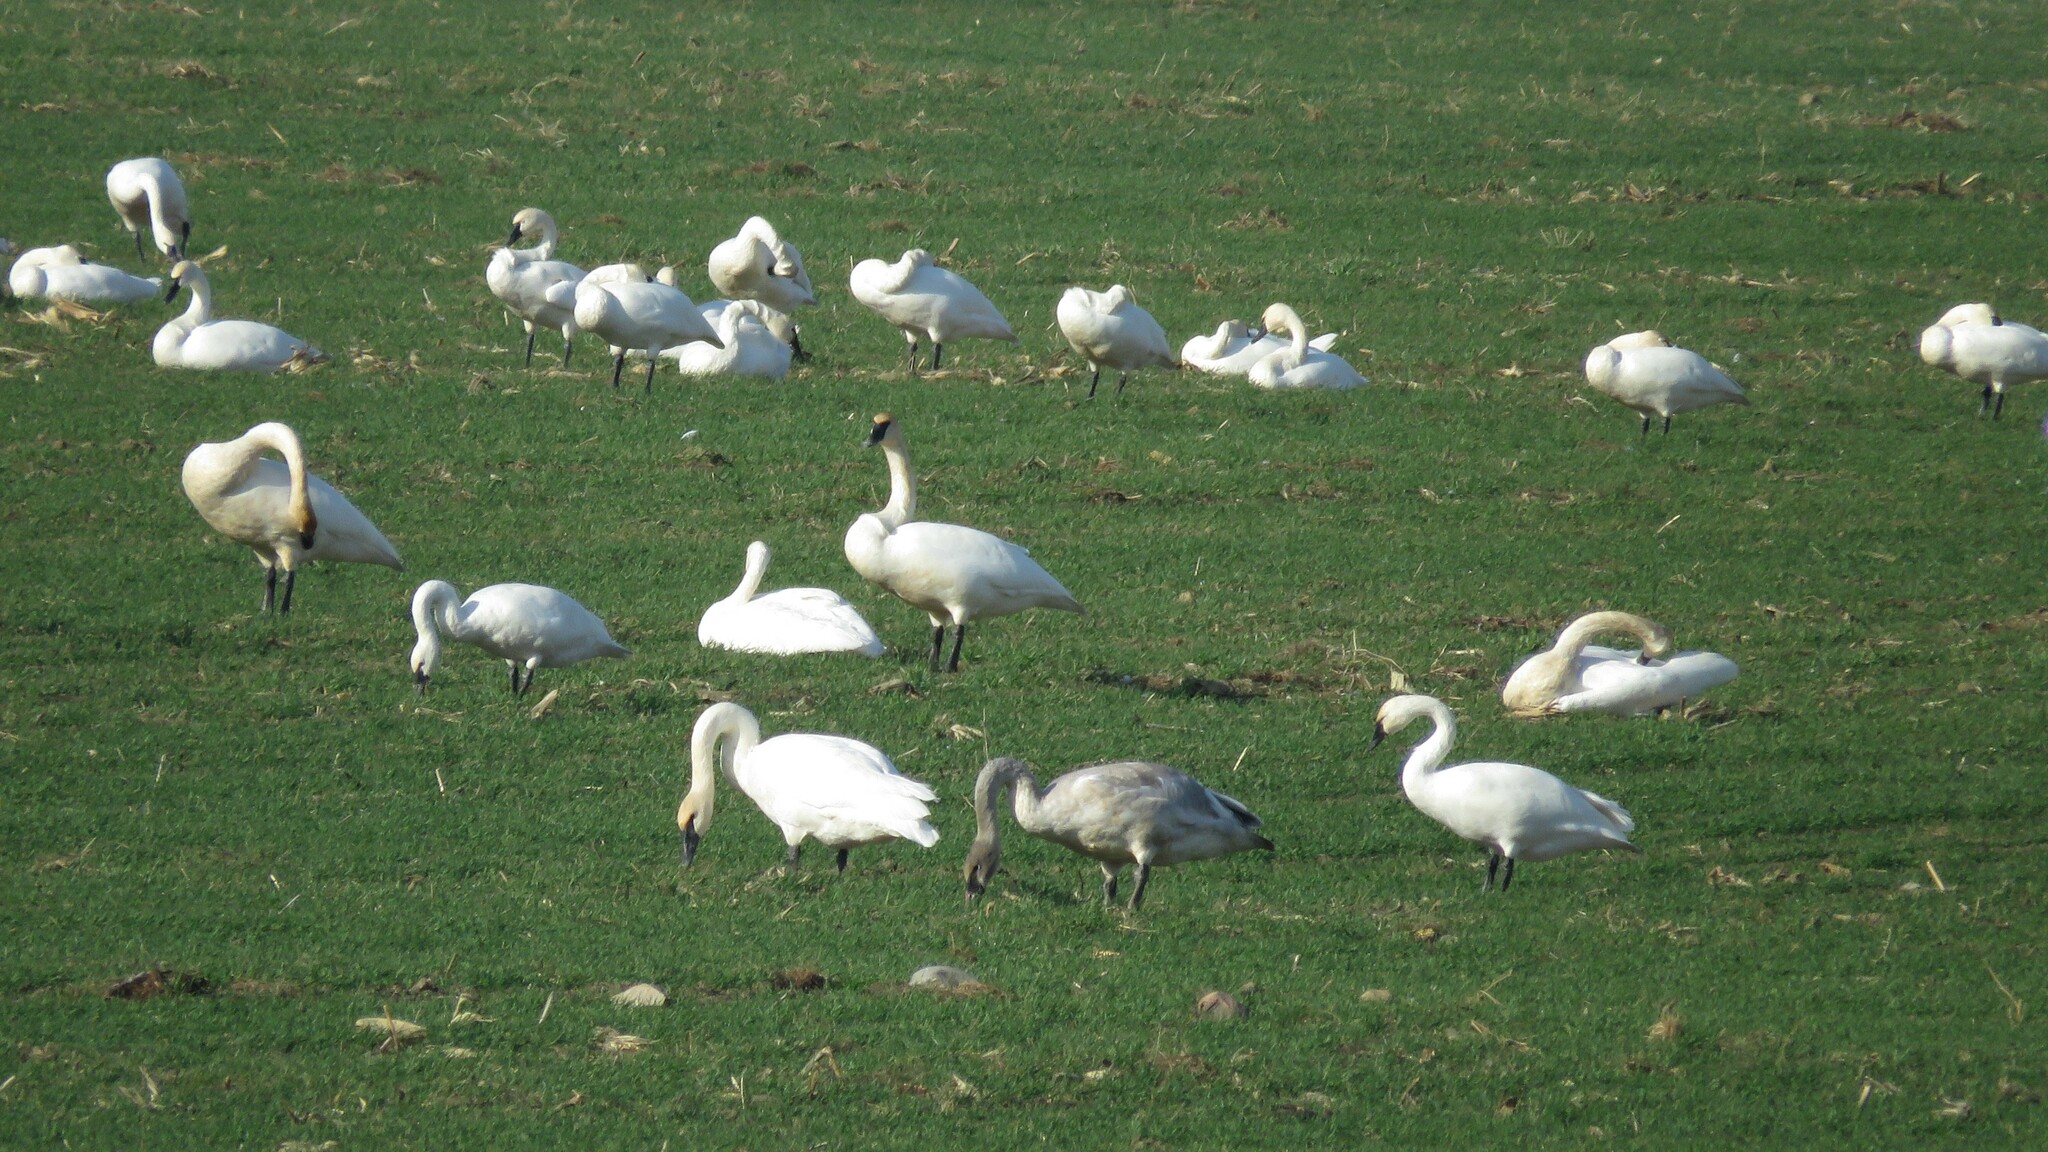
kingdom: Animalia
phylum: Chordata
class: Aves
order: Anseriformes
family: Anatidae
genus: Cygnus
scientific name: Cygnus columbianus
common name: Tundra swan
